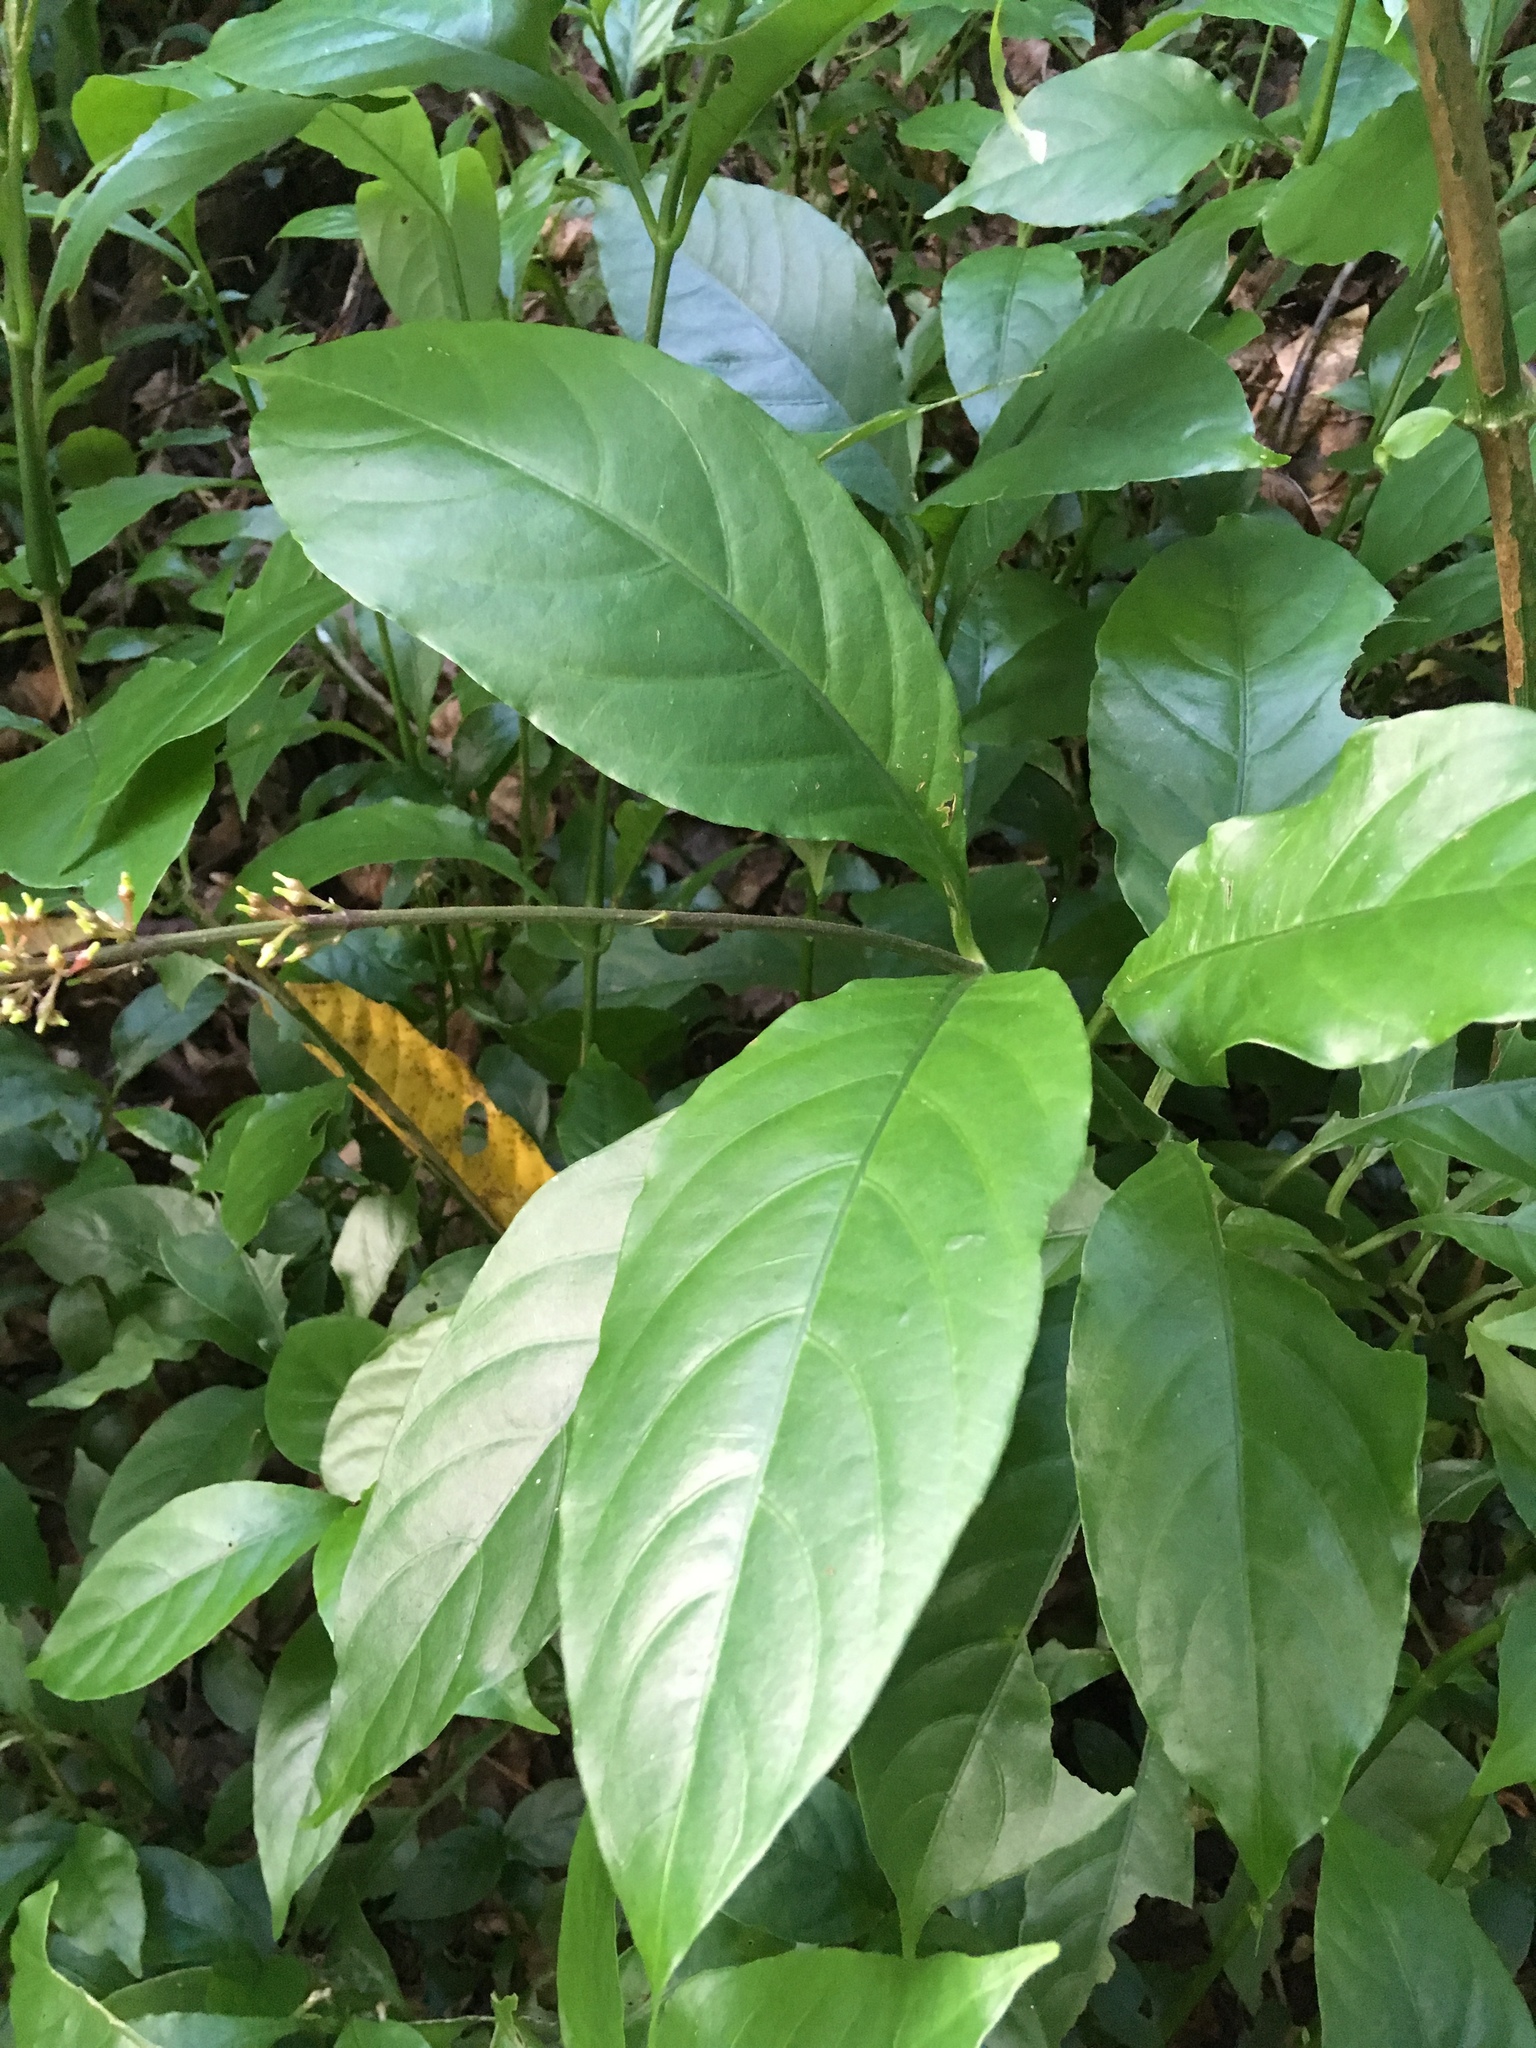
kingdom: Plantae
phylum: Tracheophyta
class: Magnoliopsida
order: Lamiales
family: Acanthaceae
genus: Odontonema
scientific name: Odontonema tubaeforme
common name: Firespike
